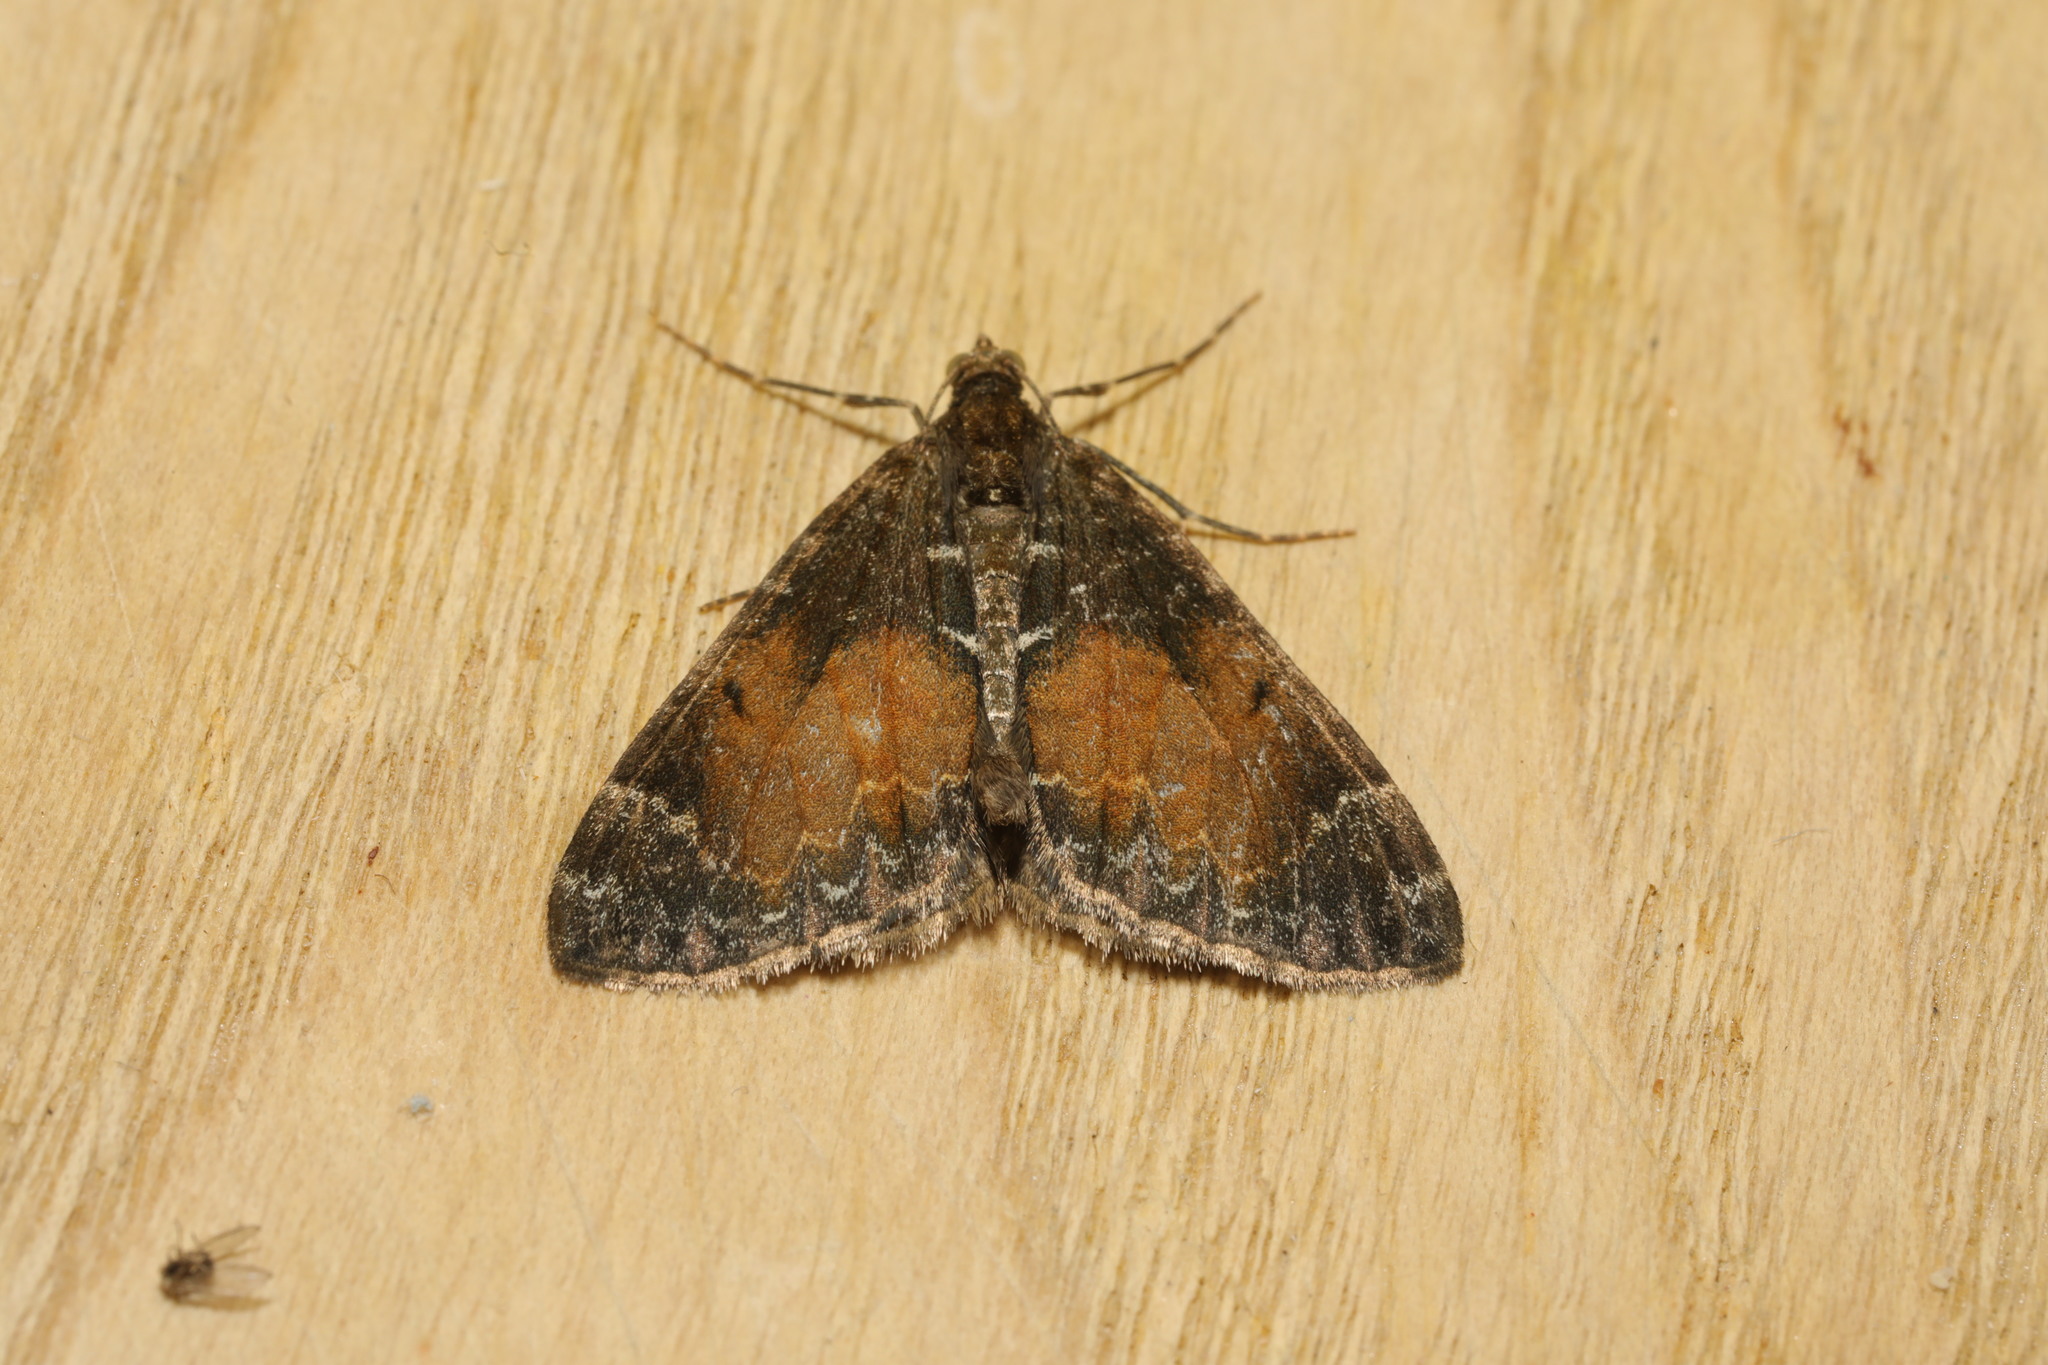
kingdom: Animalia
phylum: Arthropoda
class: Insecta
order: Lepidoptera
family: Geometridae
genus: Dysstroma
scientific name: Dysstroma truncata
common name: Common marbled carpet
